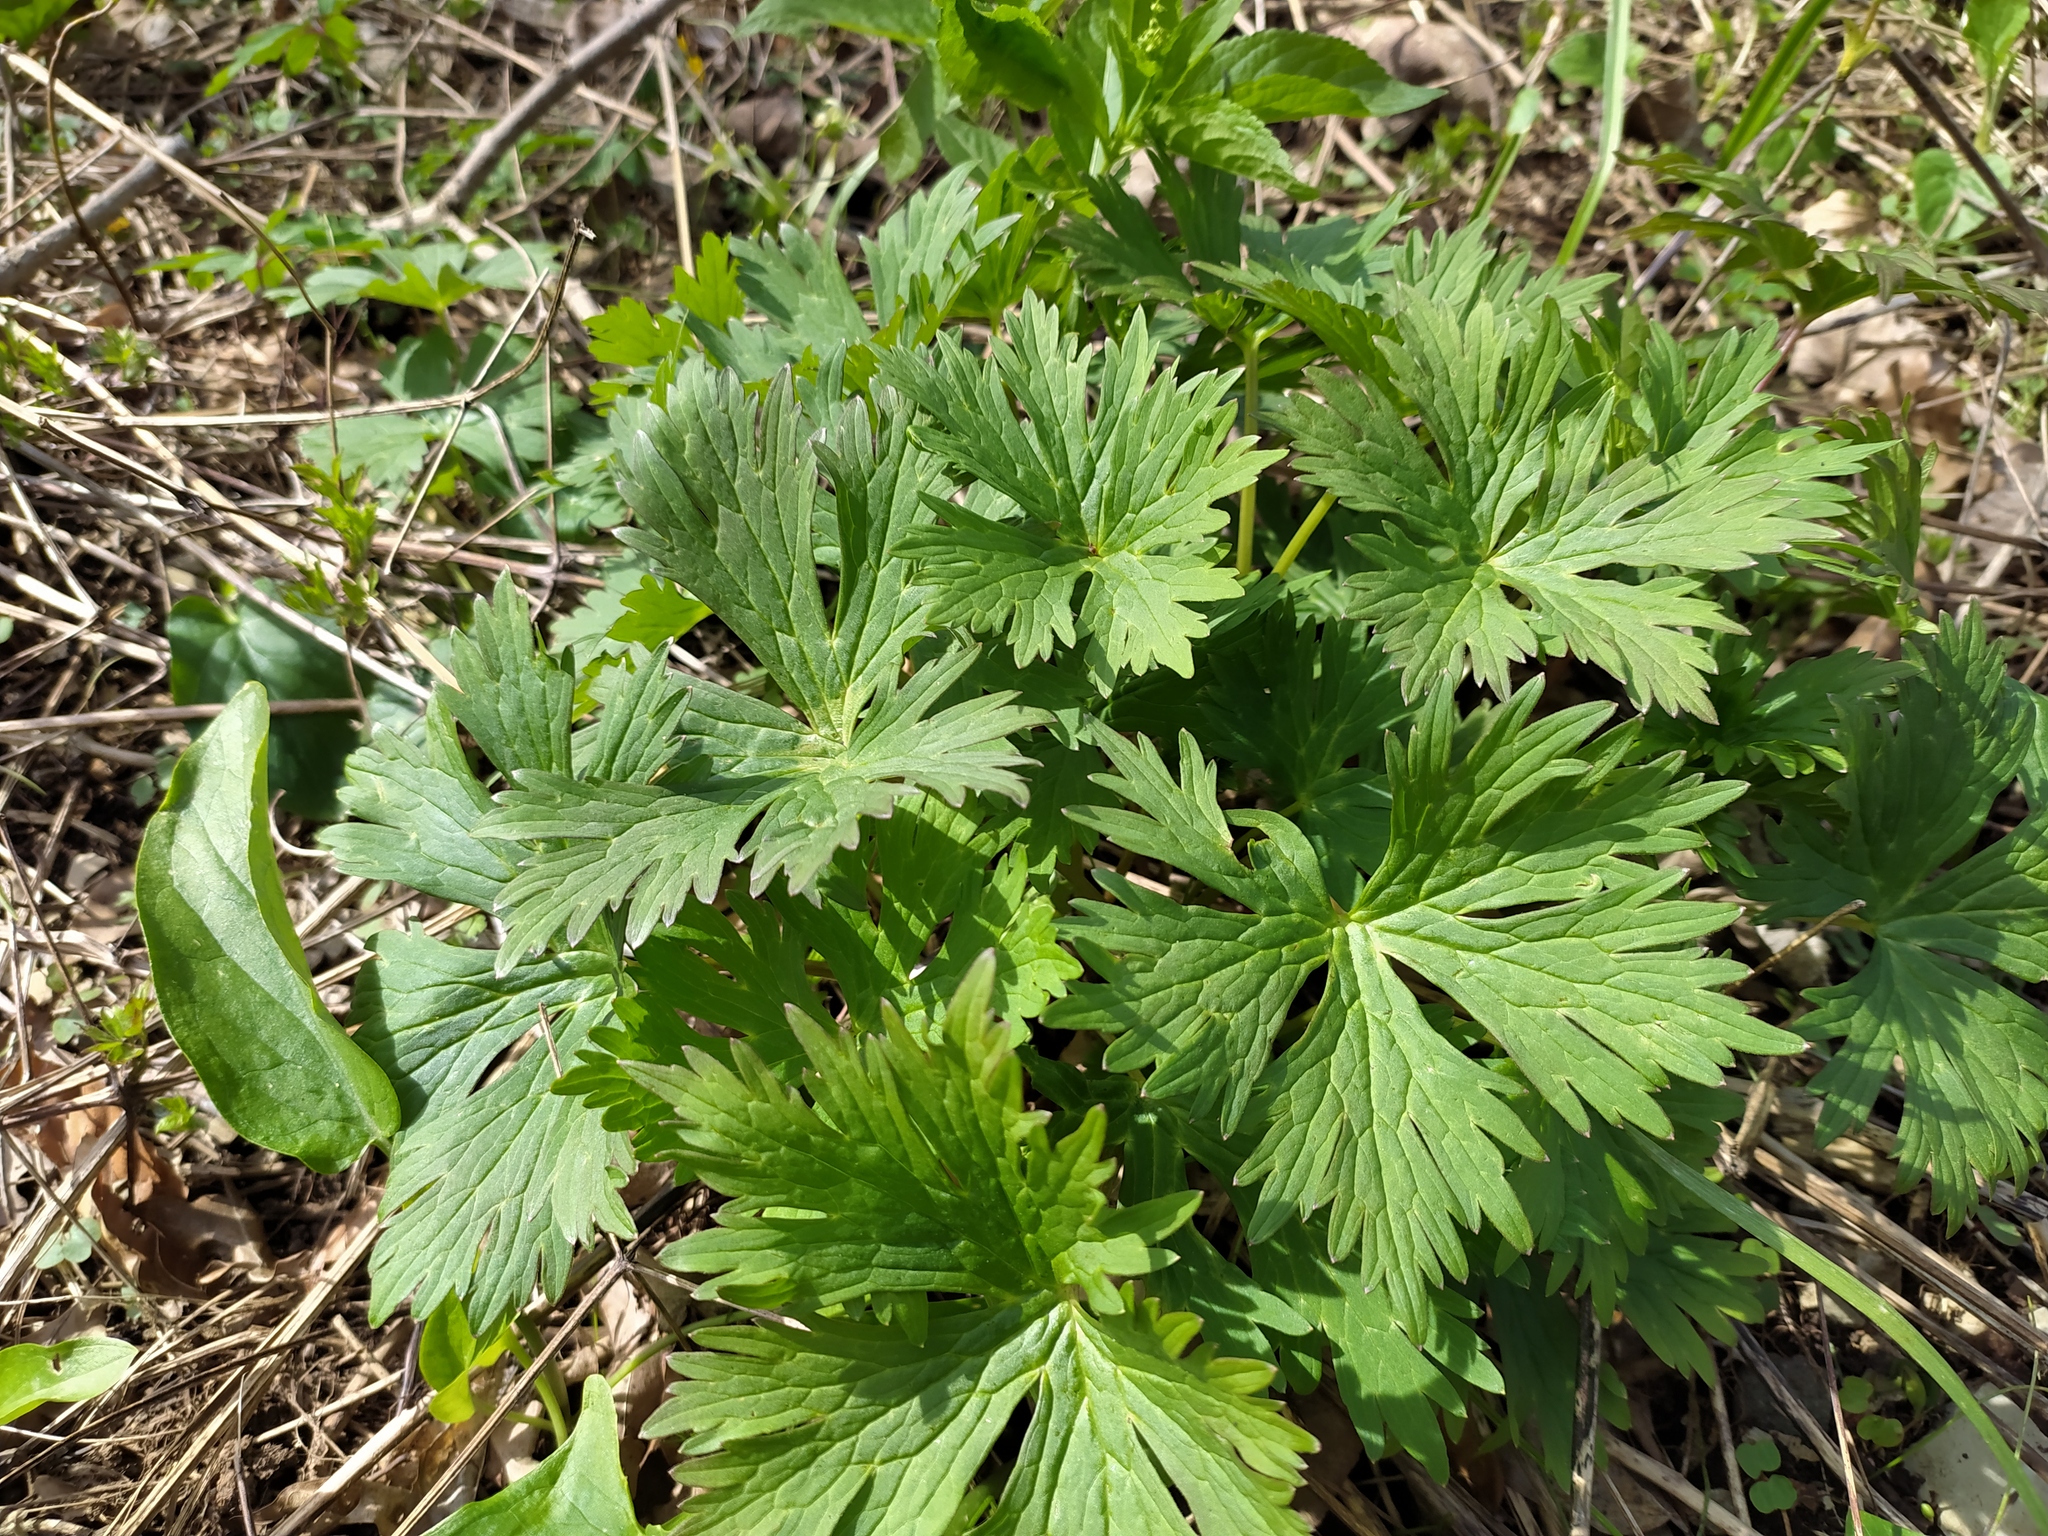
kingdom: Plantae
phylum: Tracheophyta
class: Magnoliopsida
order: Ranunculales
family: Ranunculaceae
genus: Aconitum
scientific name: Aconitum lycoctonum
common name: Wolf's-bane
